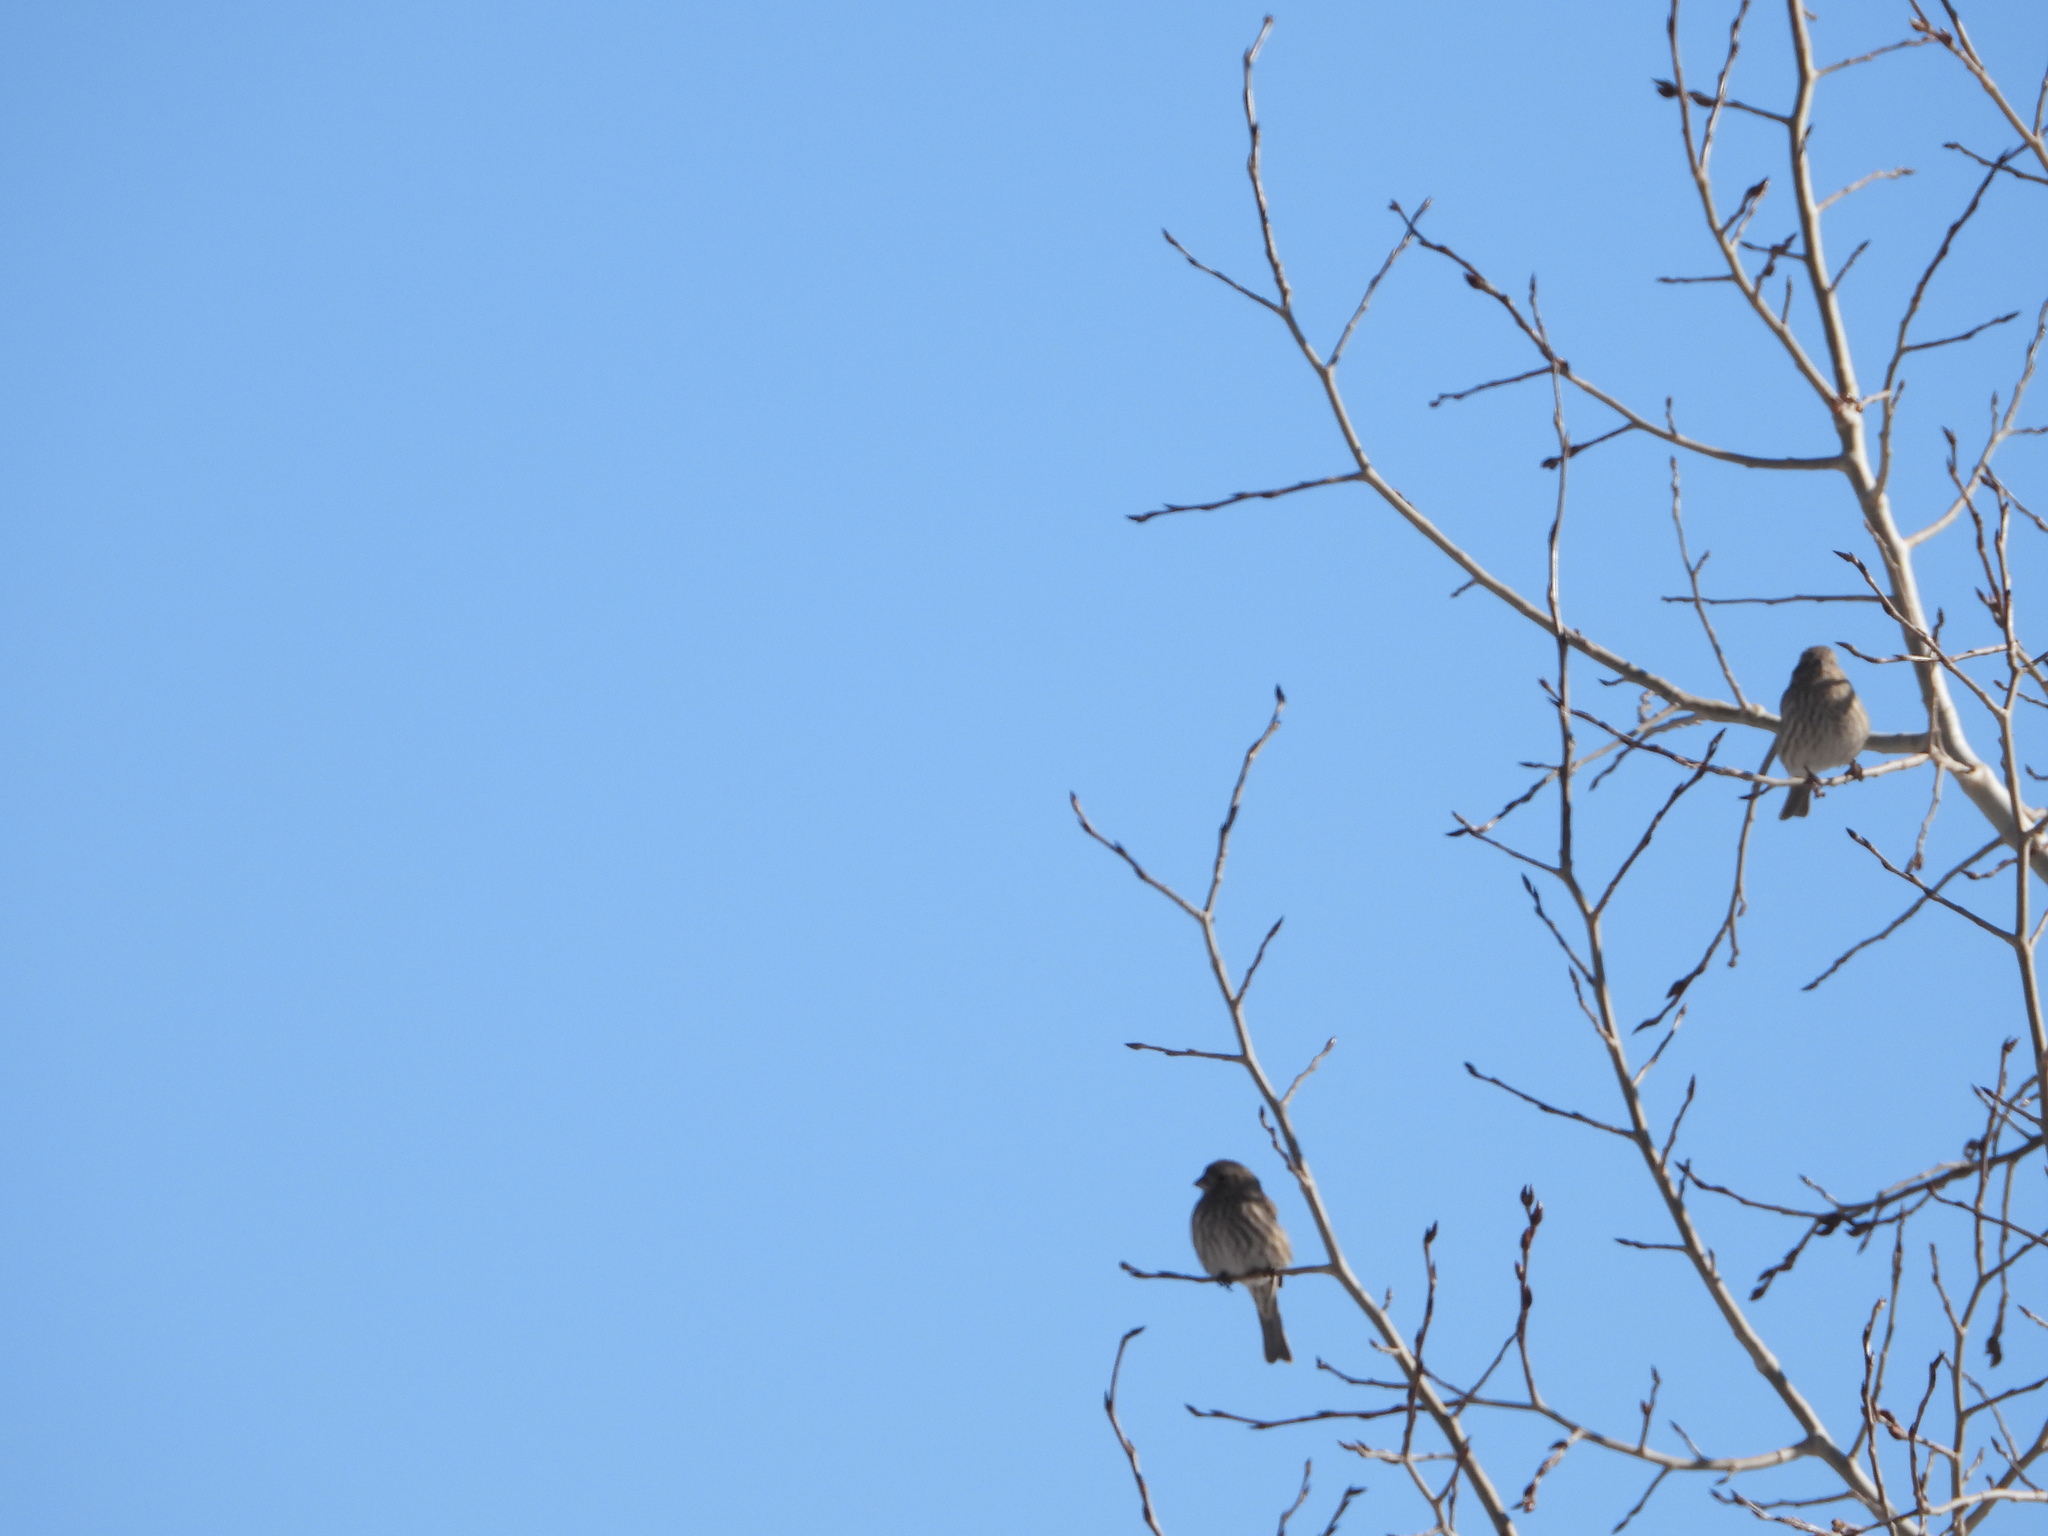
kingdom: Animalia
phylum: Chordata
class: Aves
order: Passeriformes
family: Fringillidae
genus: Haemorhous
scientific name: Haemorhous mexicanus
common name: House finch
